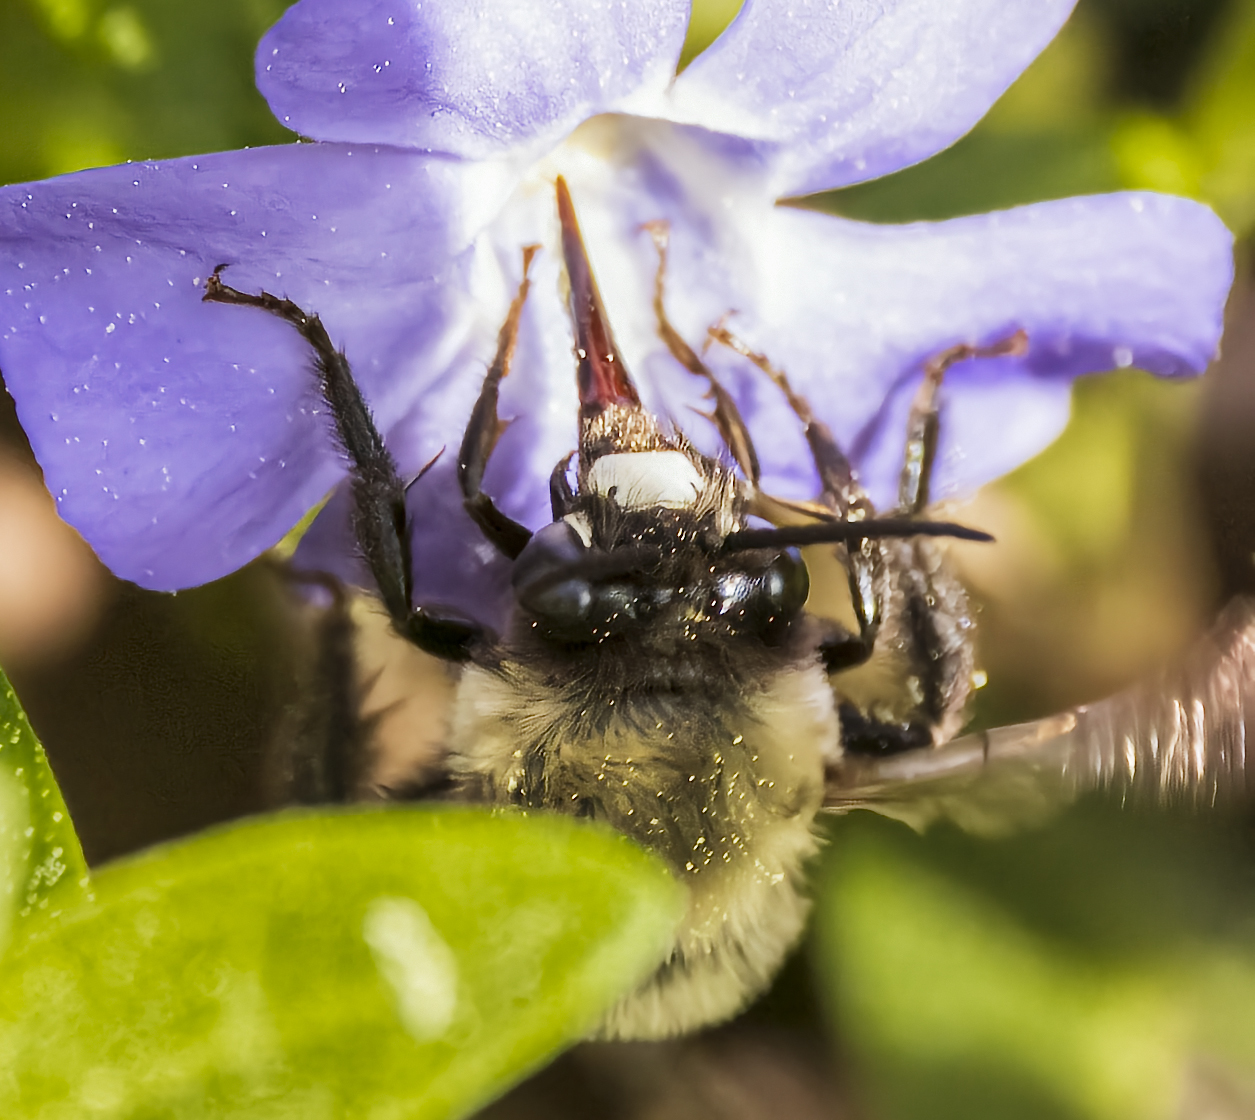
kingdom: Animalia
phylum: Arthropoda
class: Insecta
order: Hymenoptera
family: Apidae
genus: Habropoda
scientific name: Habropoda laboriosa
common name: Southeastern blueberry bee
